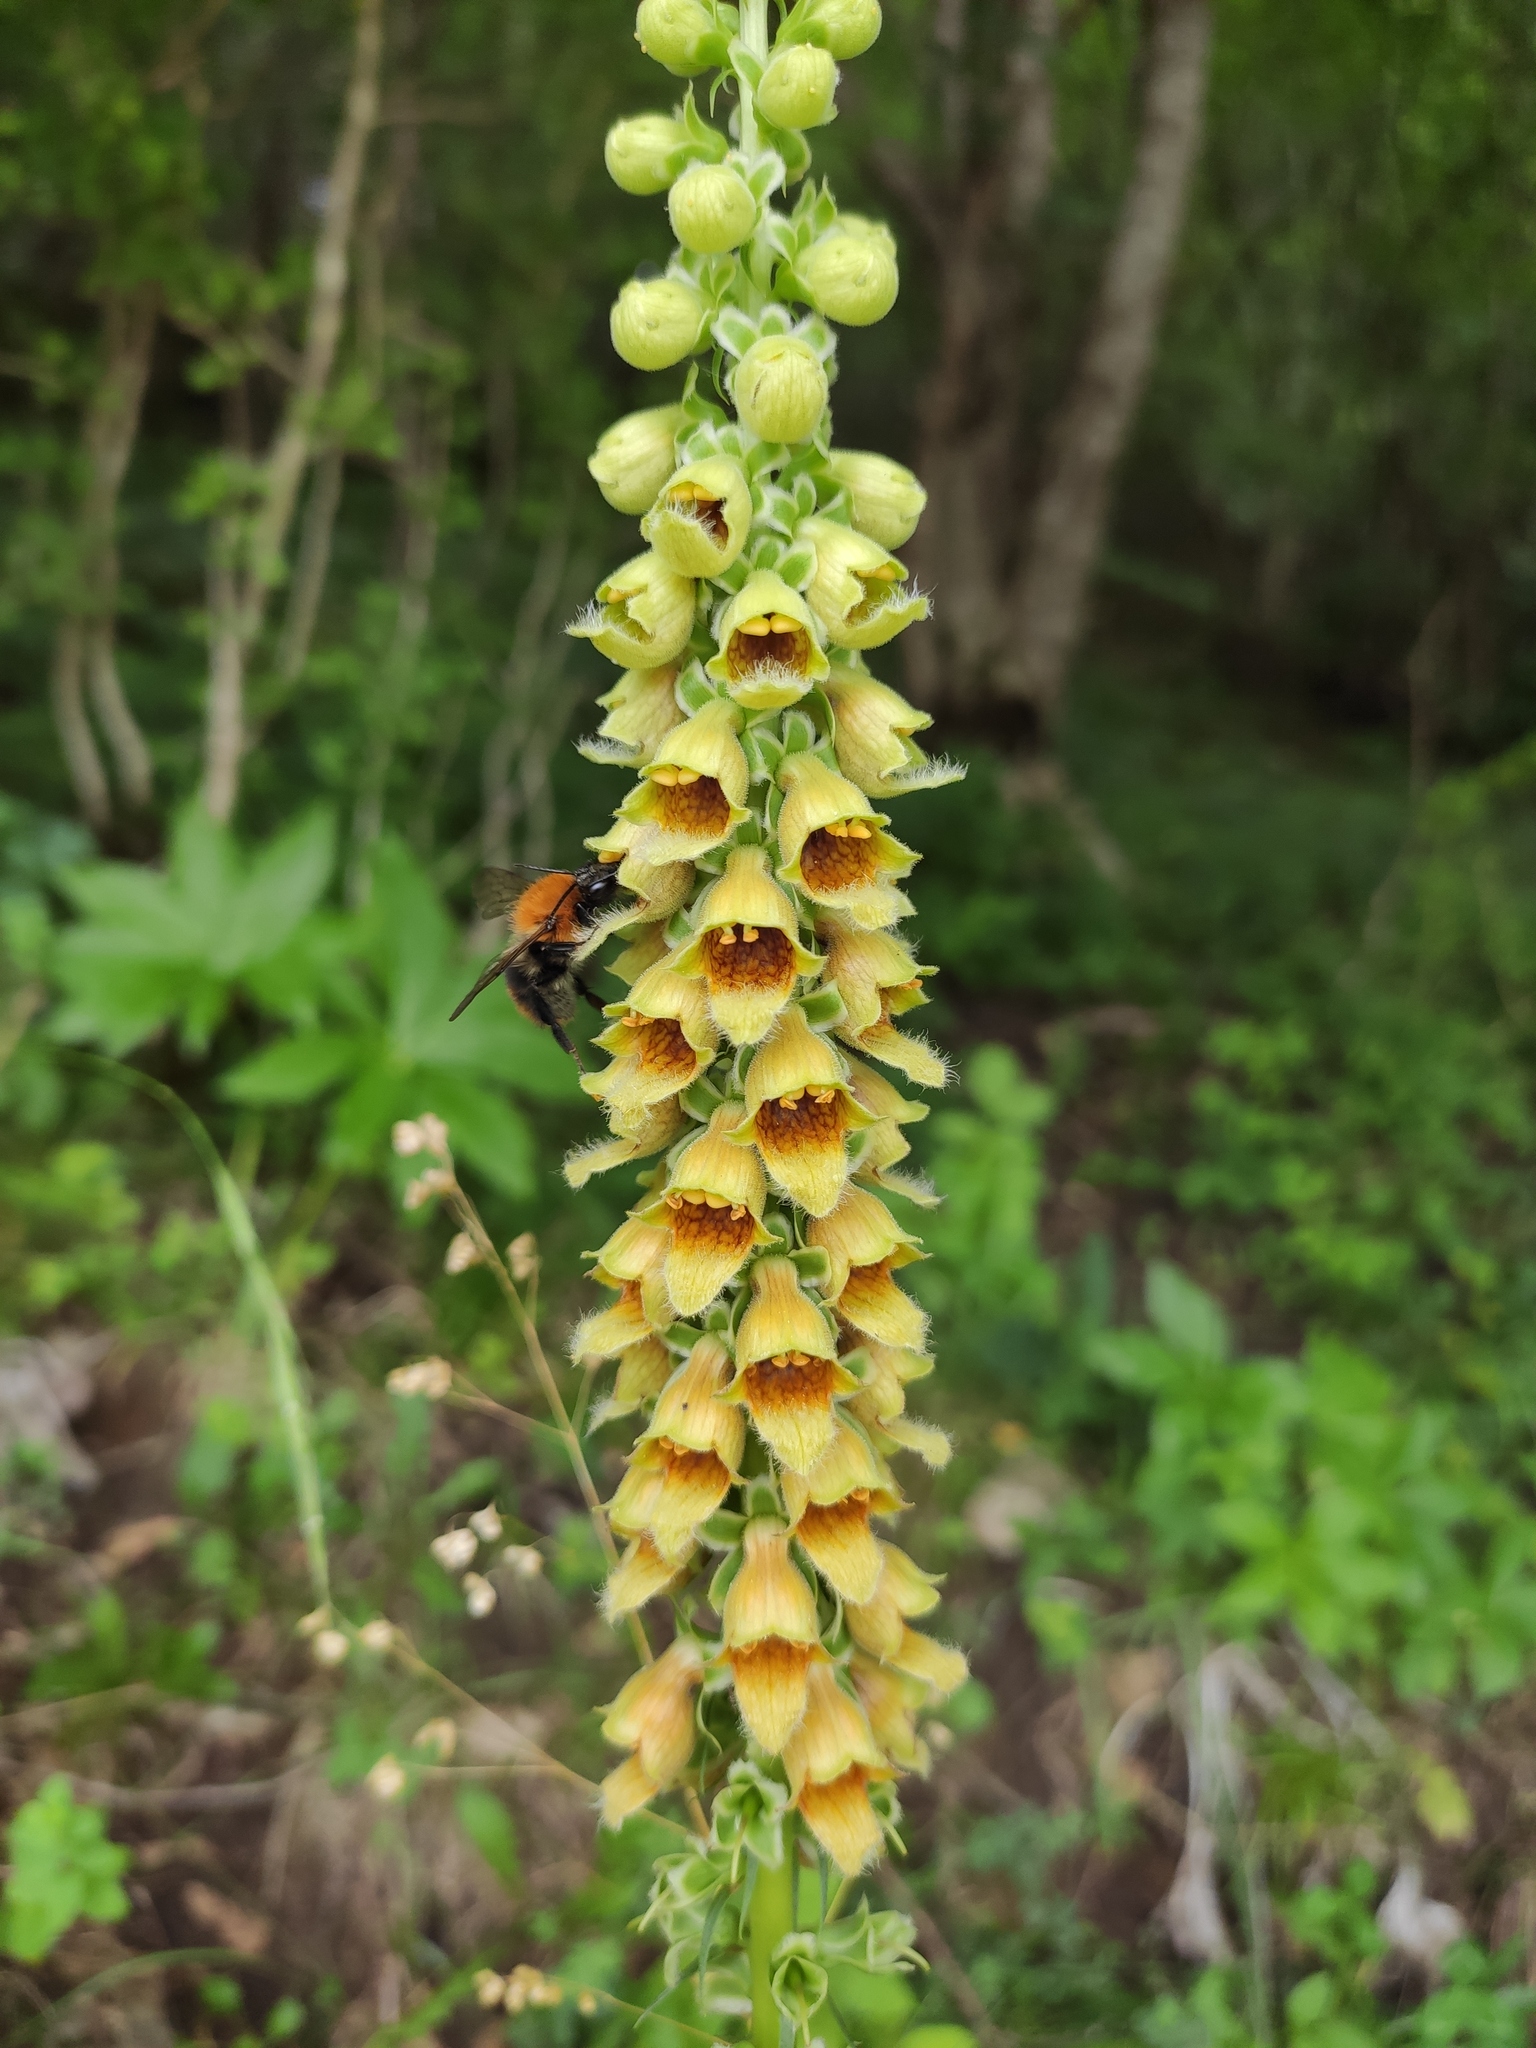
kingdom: Plantae
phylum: Tracheophyta
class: Magnoliopsida
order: Lamiales
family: Plantaginaceae
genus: Digitalis
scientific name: Digitalis ferruginea
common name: Rusty foxglove
